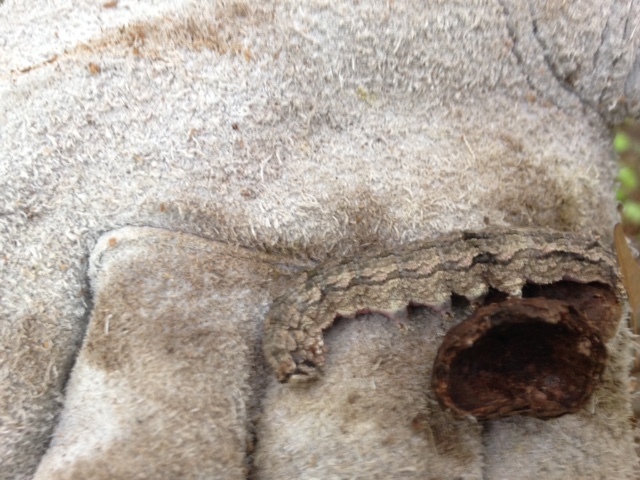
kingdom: Animalia
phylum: Arthropoda
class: Insecta
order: Lepidoptera
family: Erebidae
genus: Catocala
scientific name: Catocala ilia
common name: Ilia underwing
